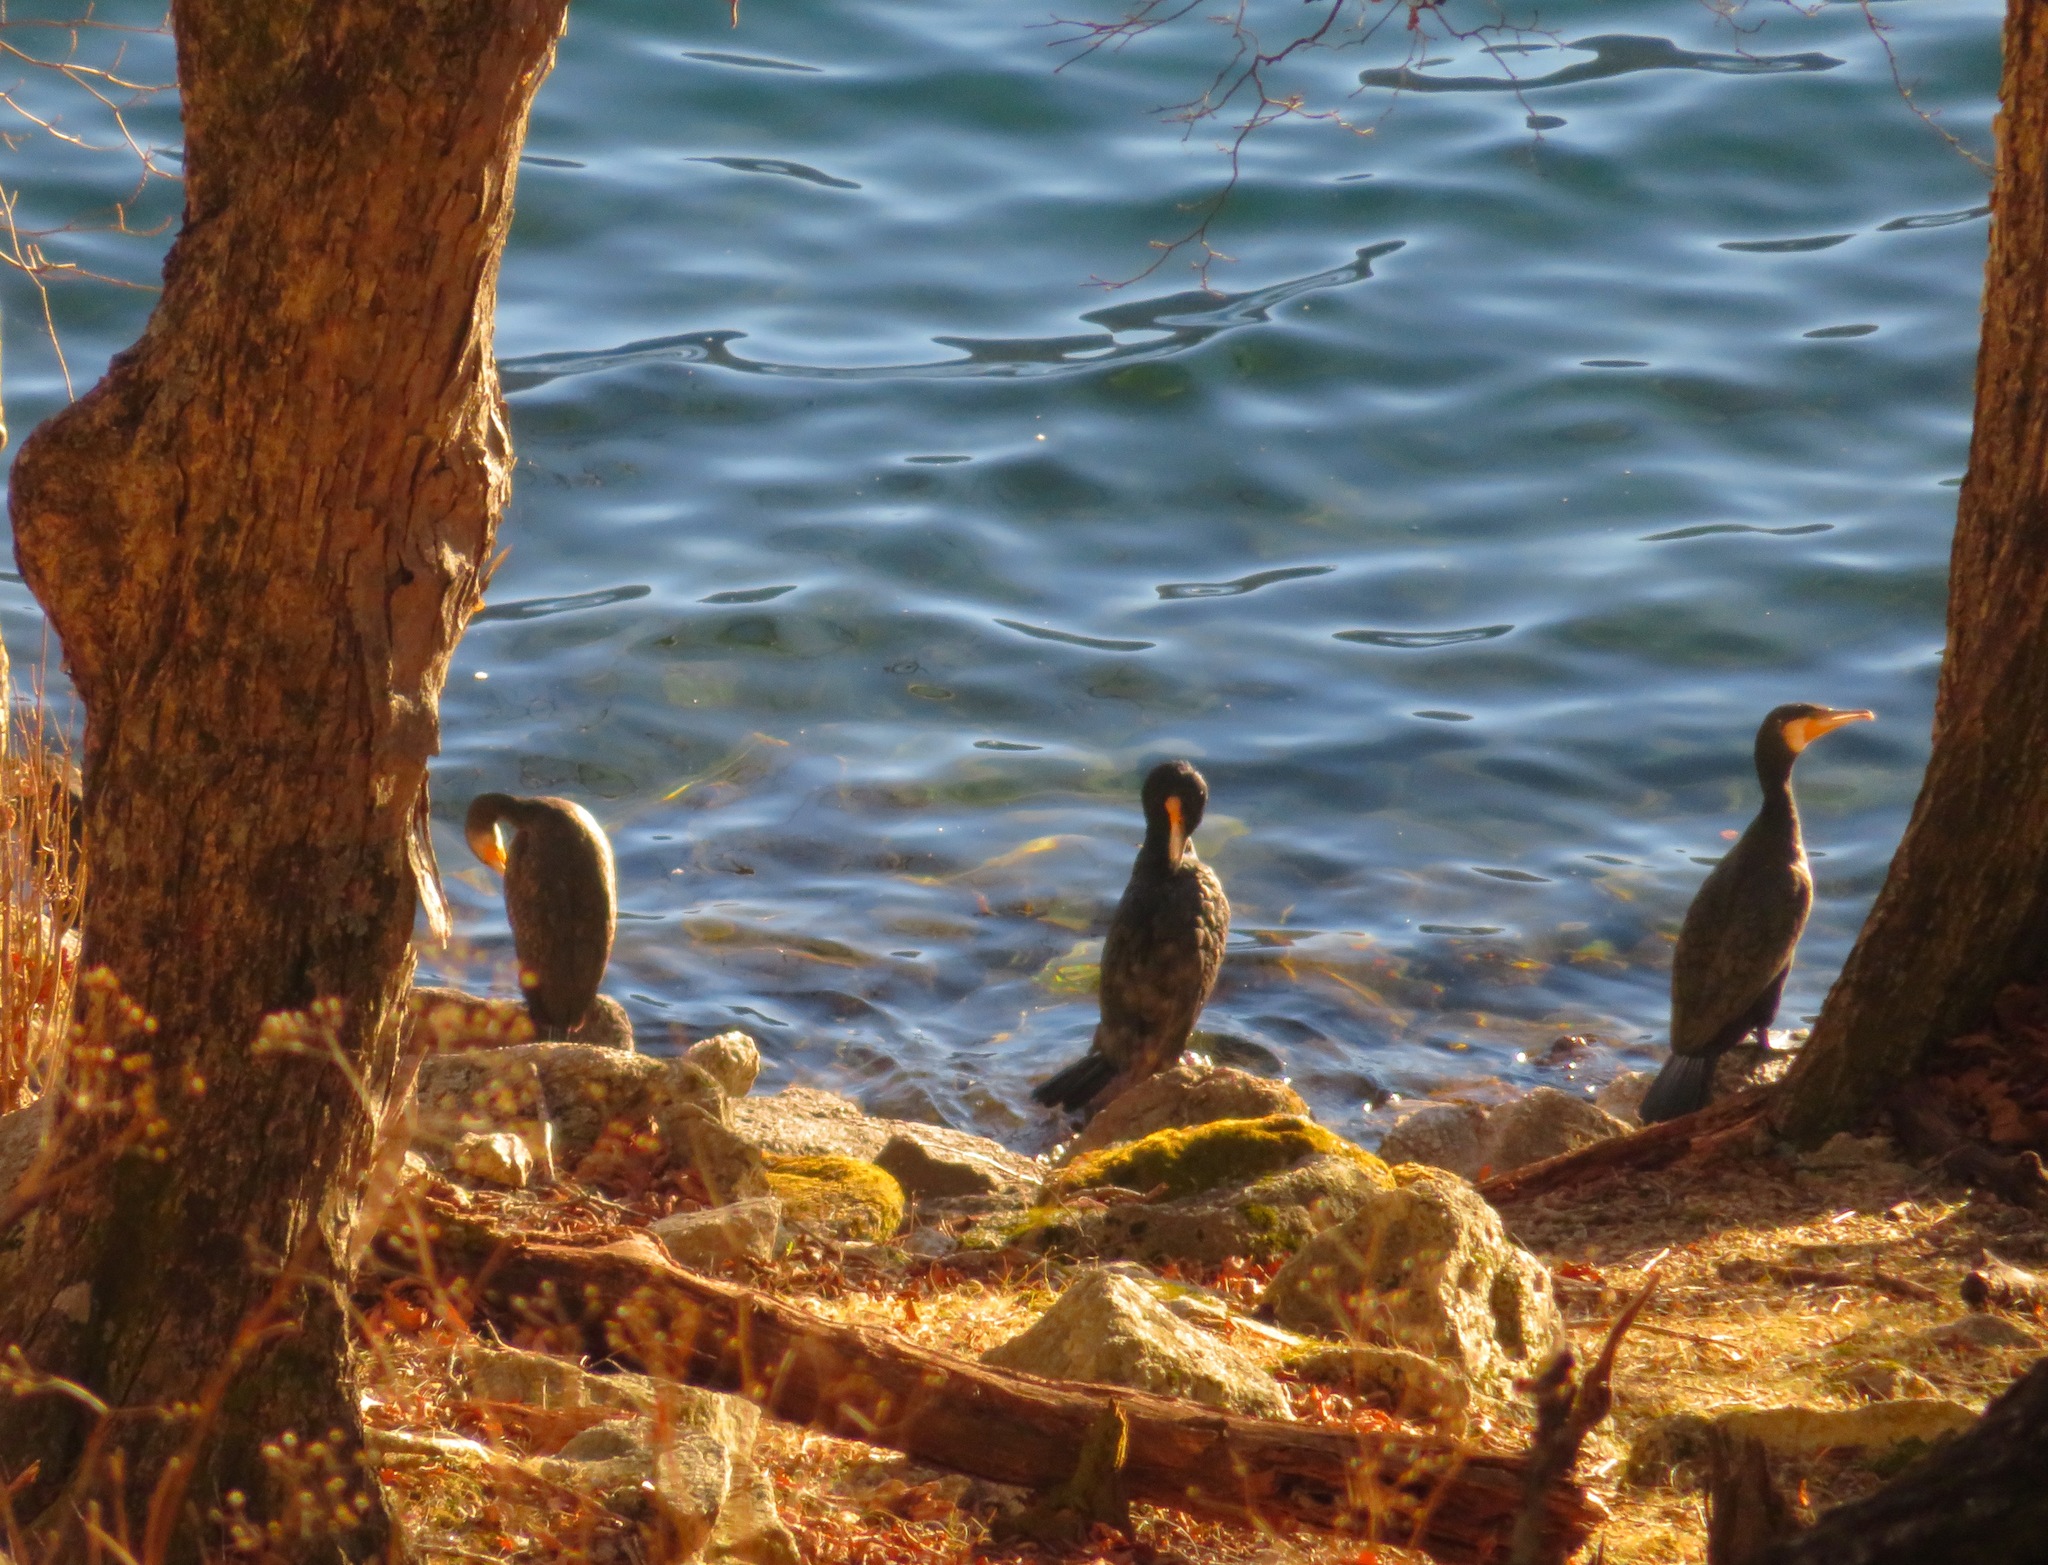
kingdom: Animalia
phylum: Chordata
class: Aves
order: Suliformes
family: Phalacrocoracidae
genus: Phalacrocorax
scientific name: Phalacrocorax carbo
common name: Great cormorant
